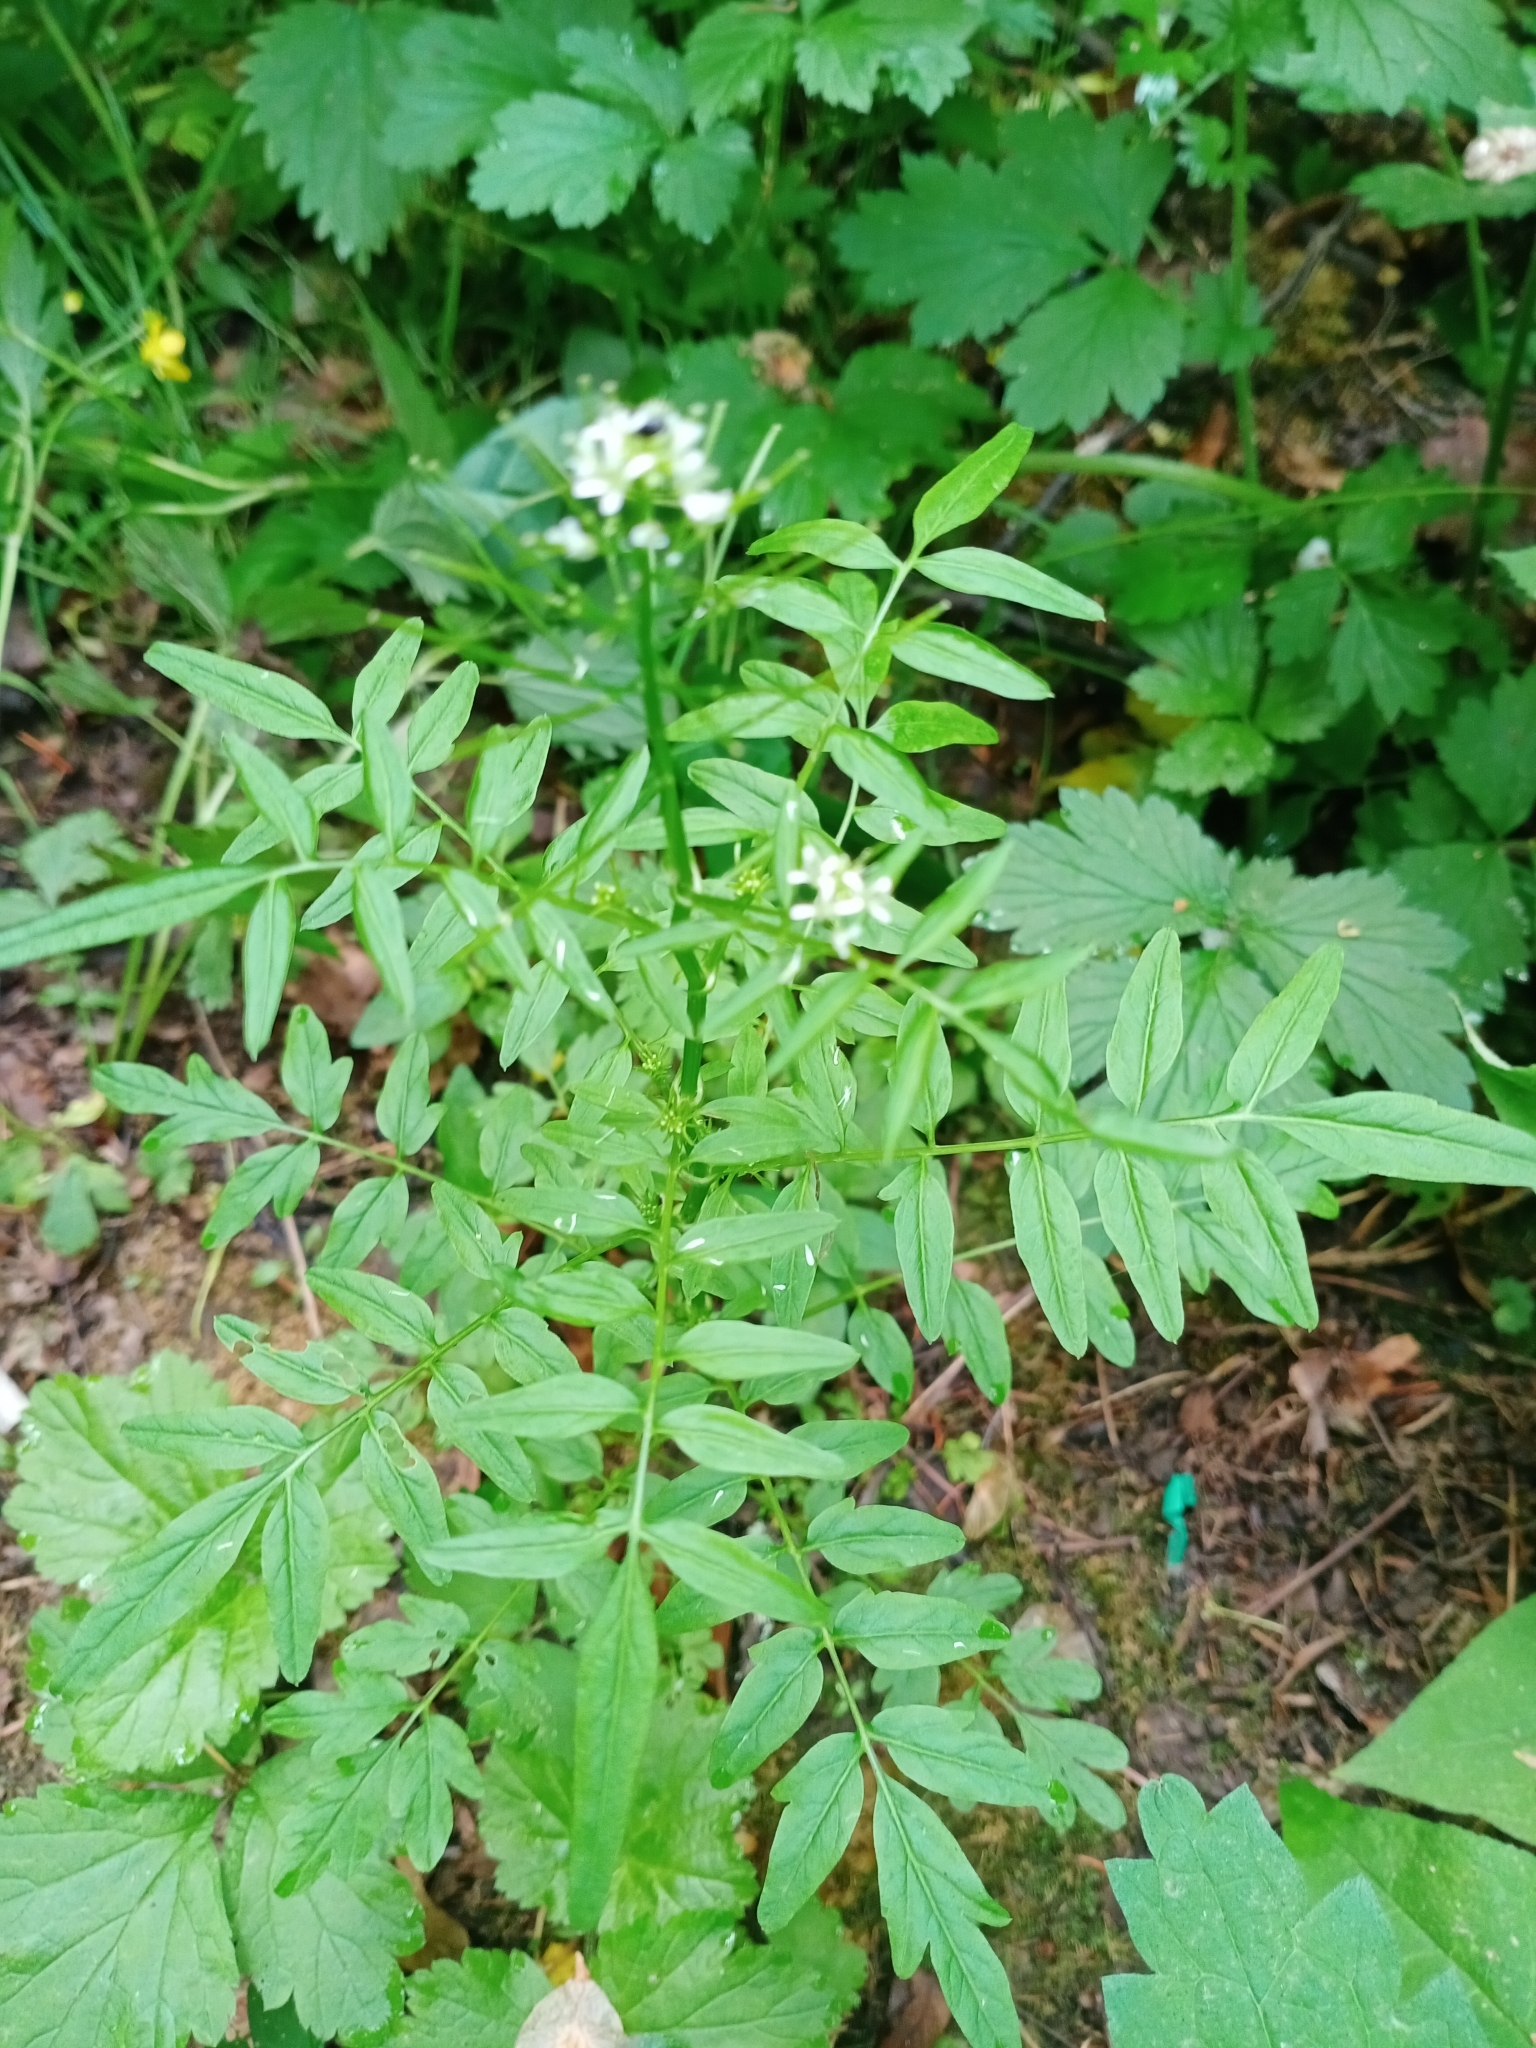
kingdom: Plantae
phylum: Tracheophyta
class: Magnoliopsida
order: Brassicales
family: Brassicaceae
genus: Cardamine
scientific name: Cardamine impatiens
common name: Narrow-leaved bitter-cress
